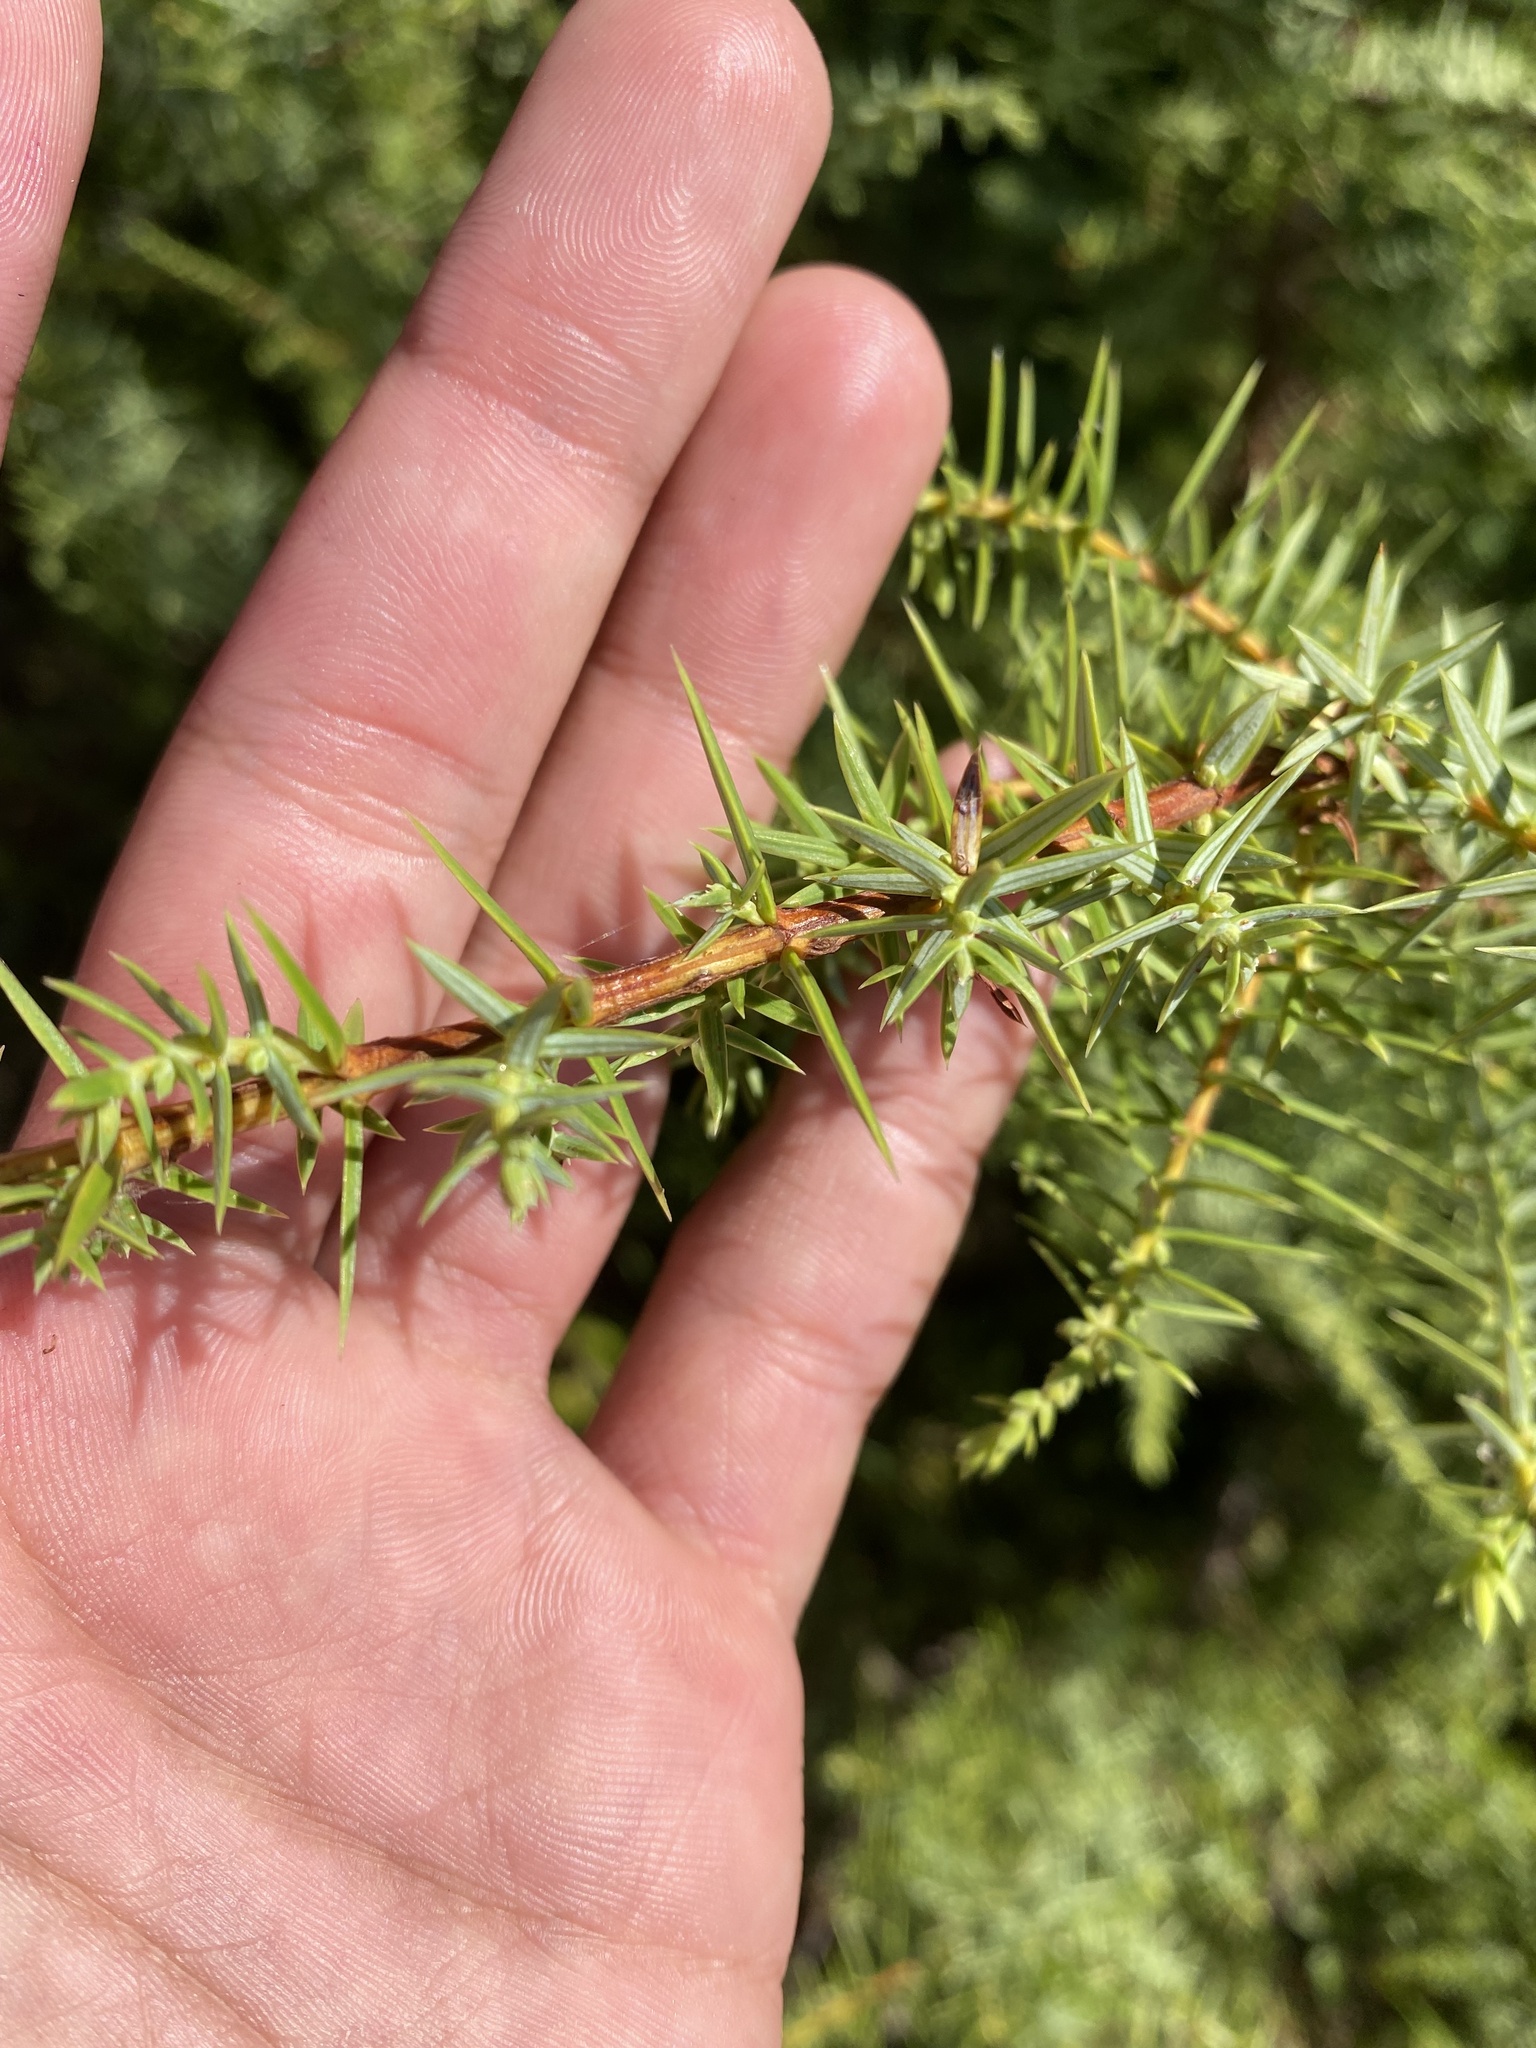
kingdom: Plantae
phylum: Tracheophyta
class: Pinopsida
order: Pinales
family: Cupressaceae
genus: Juniperus
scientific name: Juniperus oxycedrus
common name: Prickly juniper
